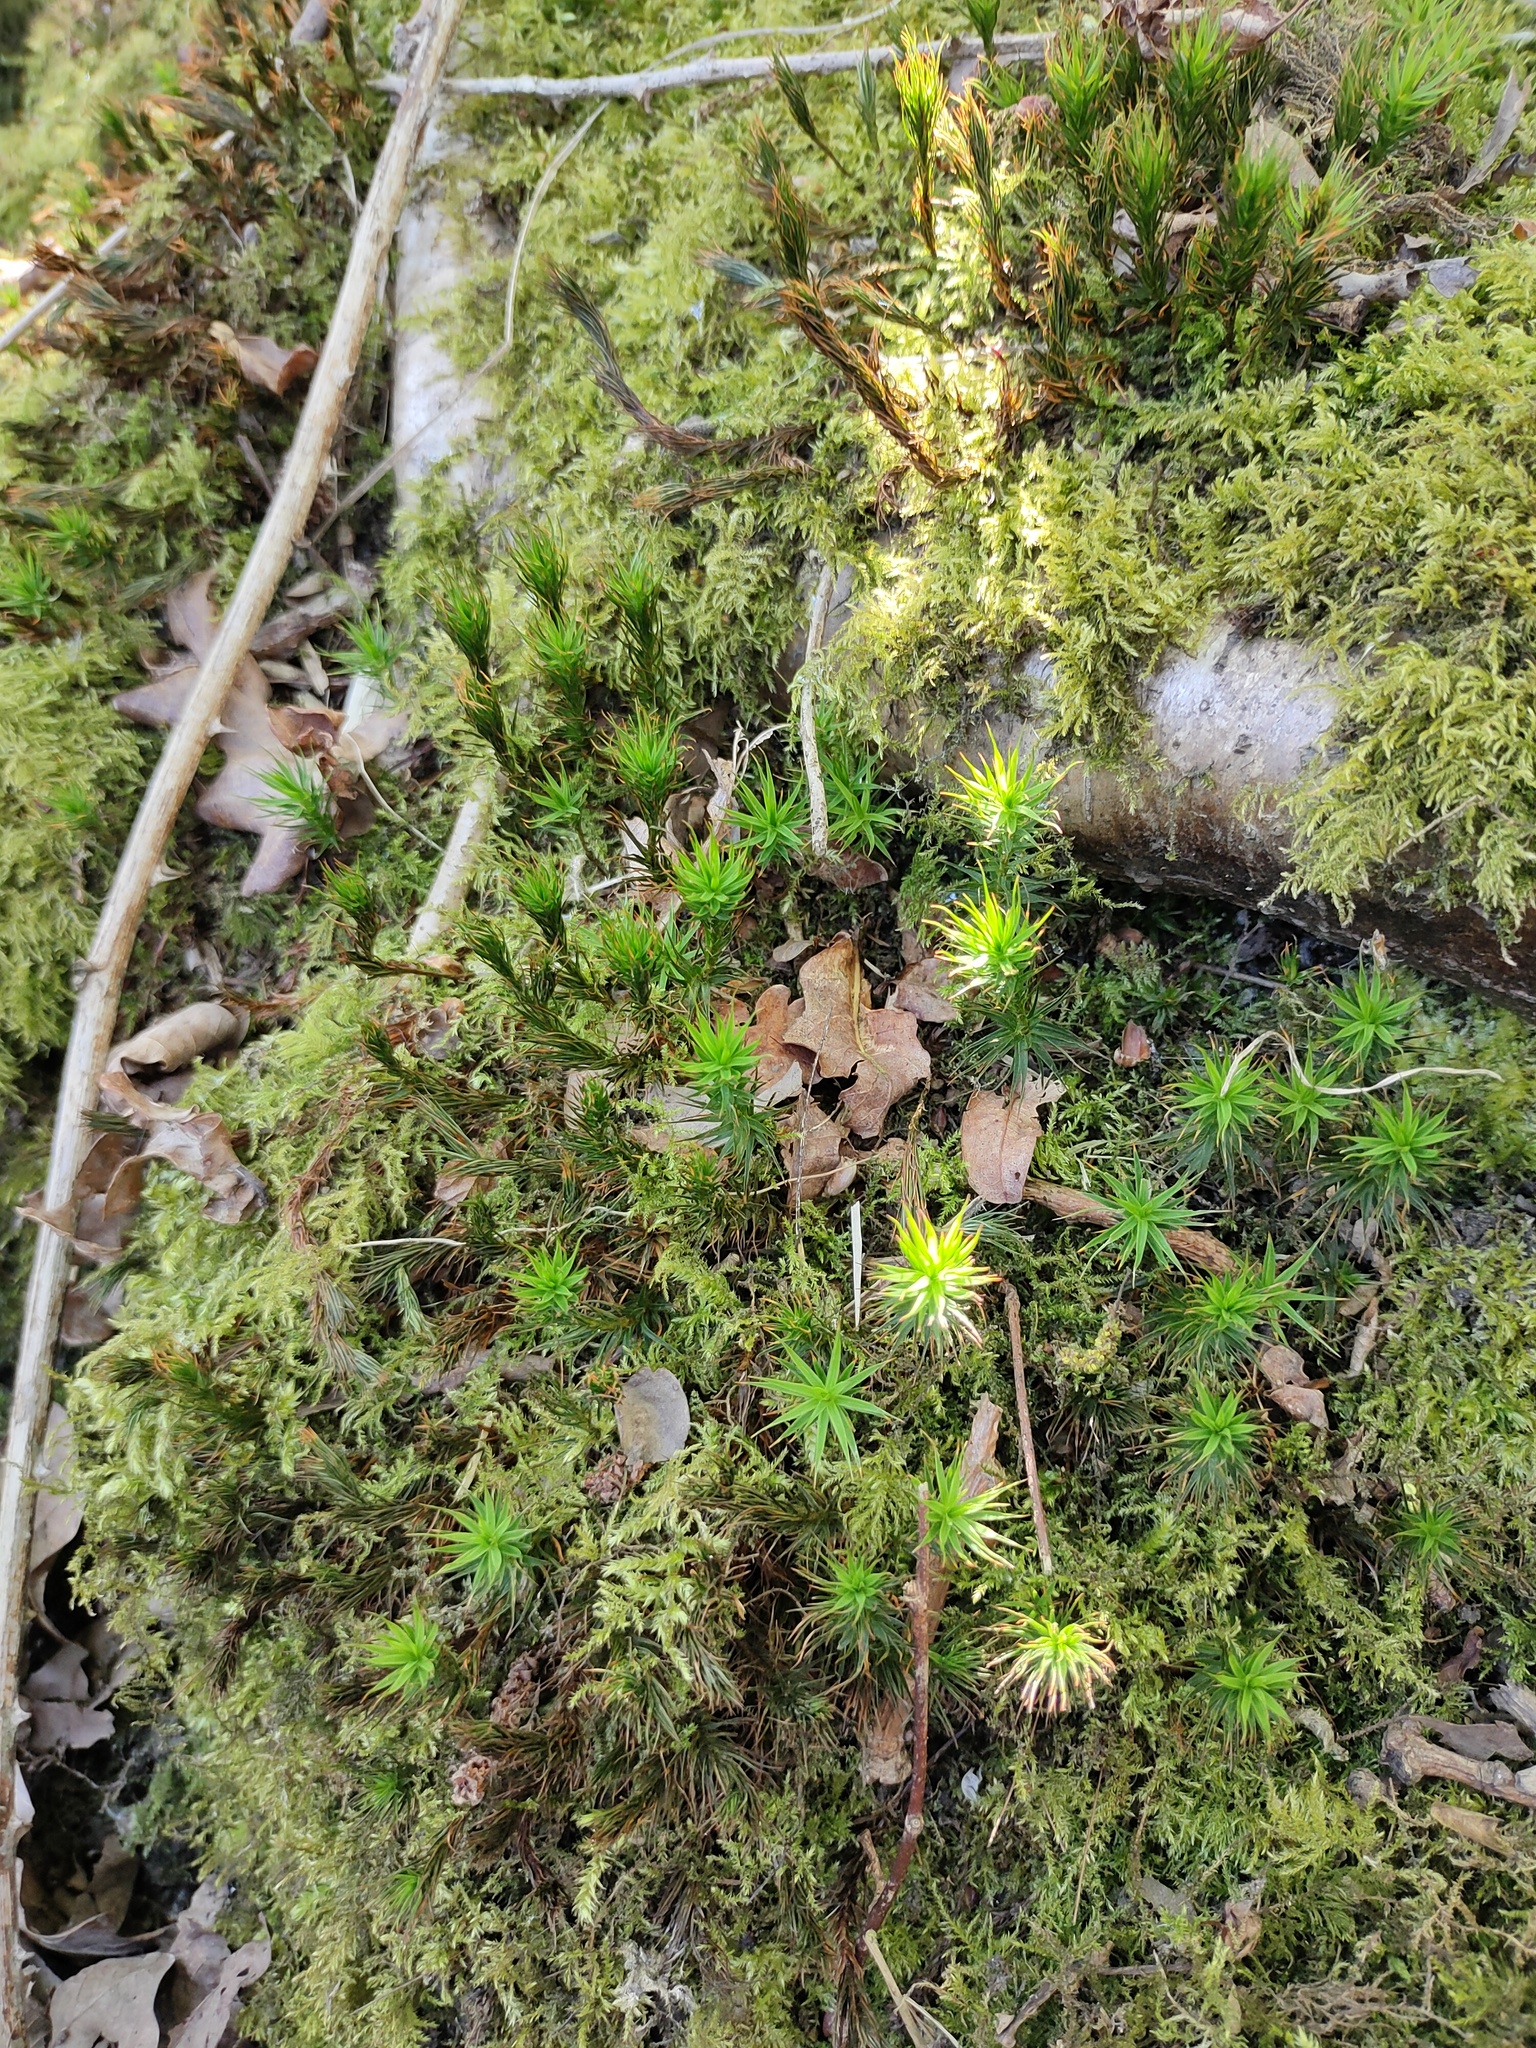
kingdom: Plantae
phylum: Bryophyta
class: Polytrichopsida
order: Polytrichales
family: Polytrichaceae
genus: Polytrichum
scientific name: Polytrichum formosum
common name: Bank haircap moss
